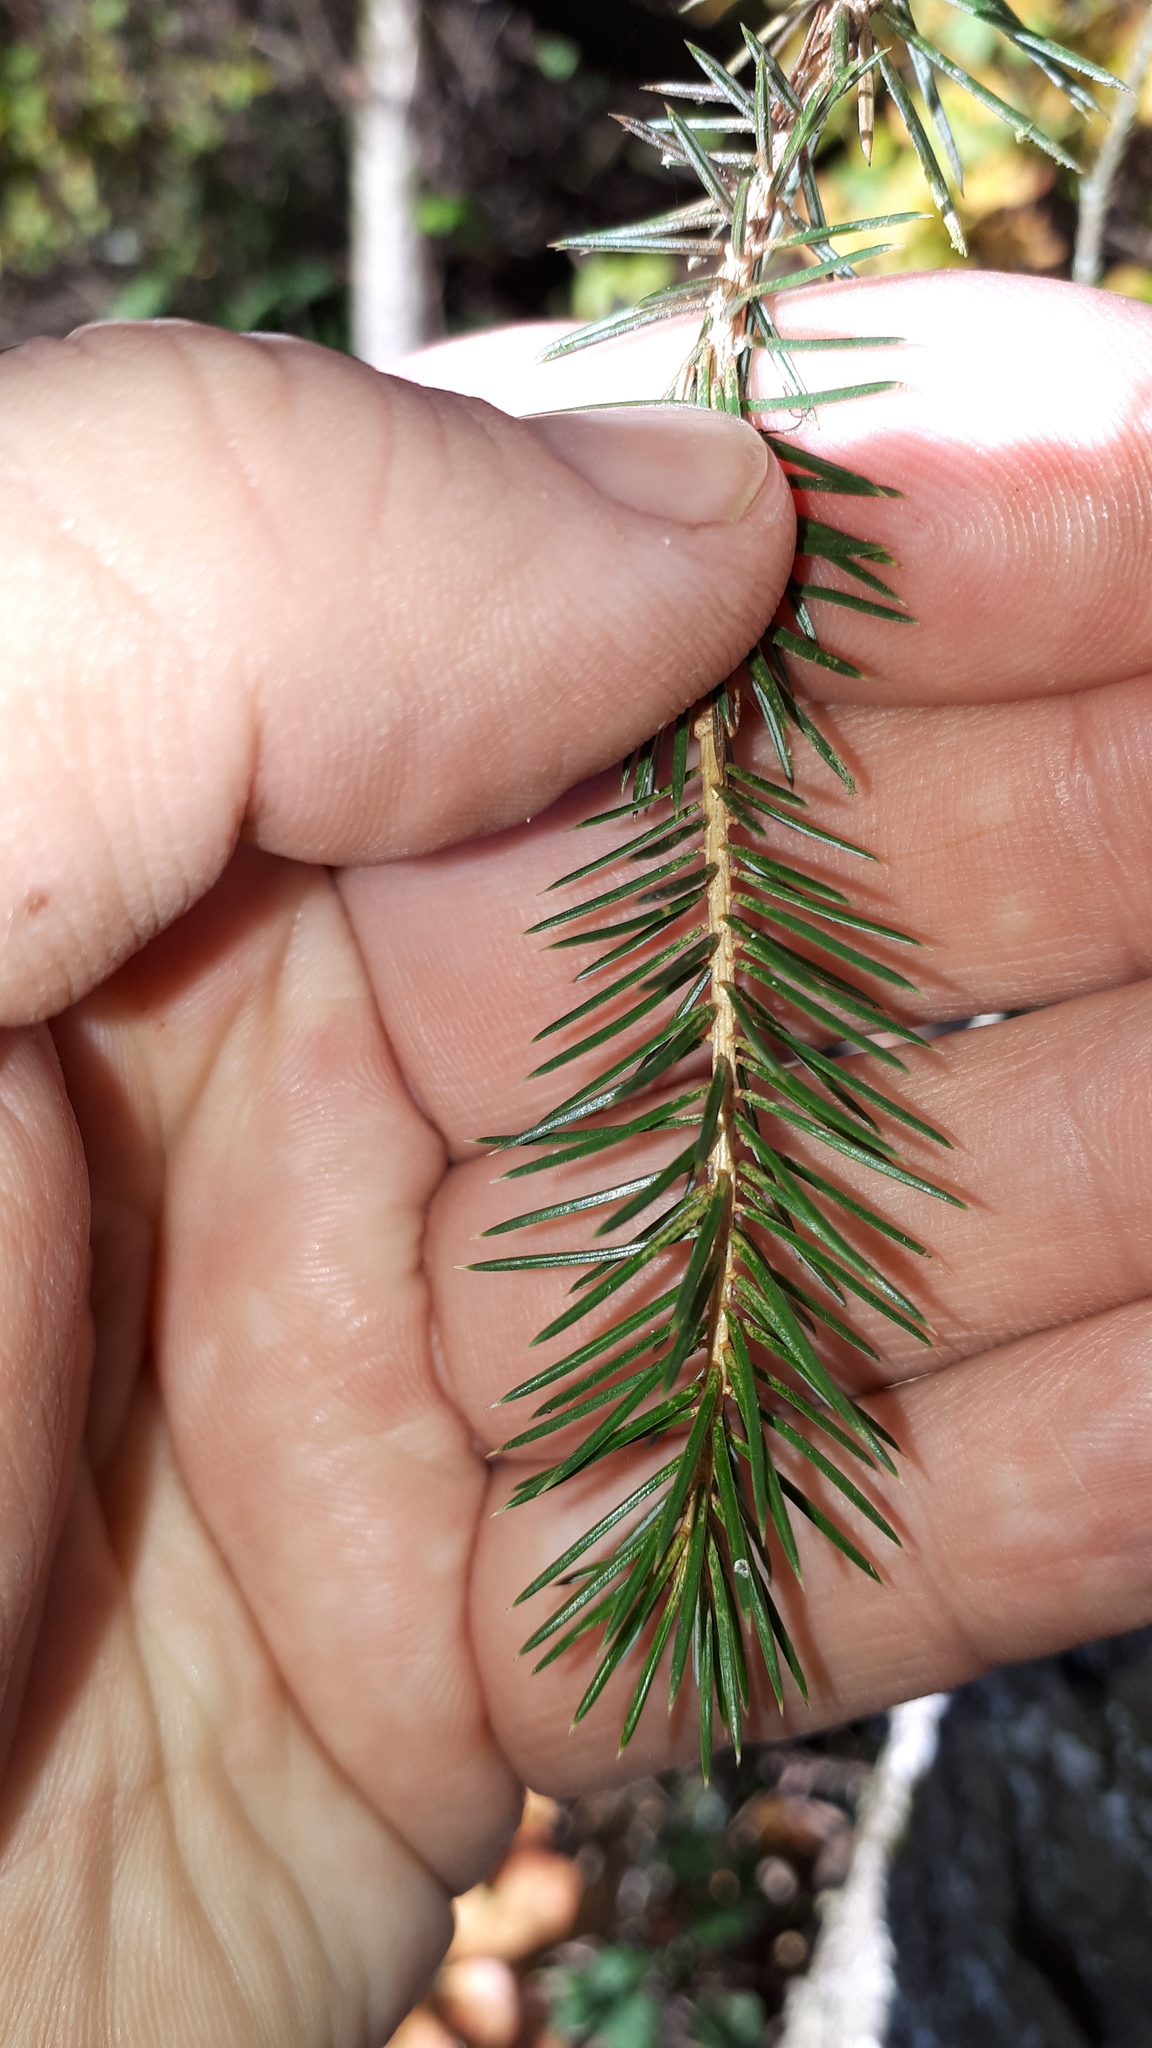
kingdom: Plantae
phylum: Tracheophyta
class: Pinopsida
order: Pinales
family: Pinaceae
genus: Picea
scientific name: Picea sitchensis
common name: Sitka spruce
